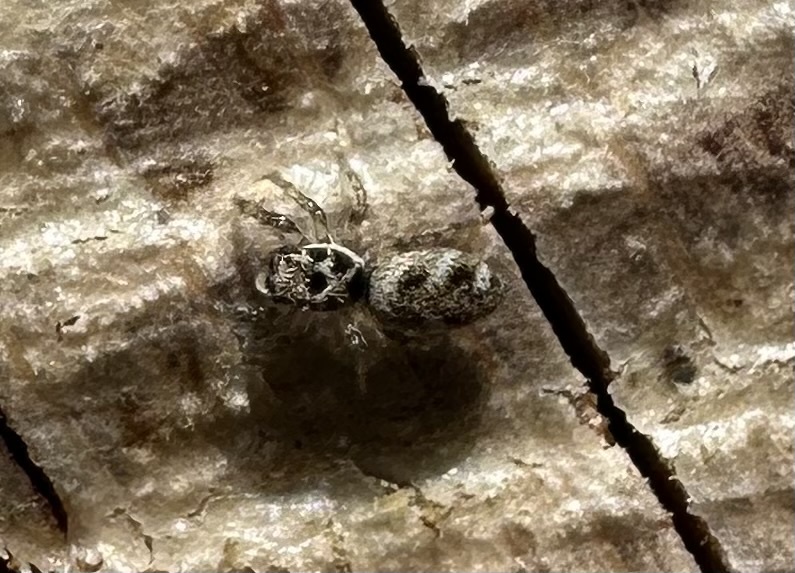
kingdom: Animalia
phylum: Arthropoda
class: Arachnida
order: Araneae
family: Salticidae
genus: Salticus
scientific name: Salticus scenicus
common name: Zebra jumper
